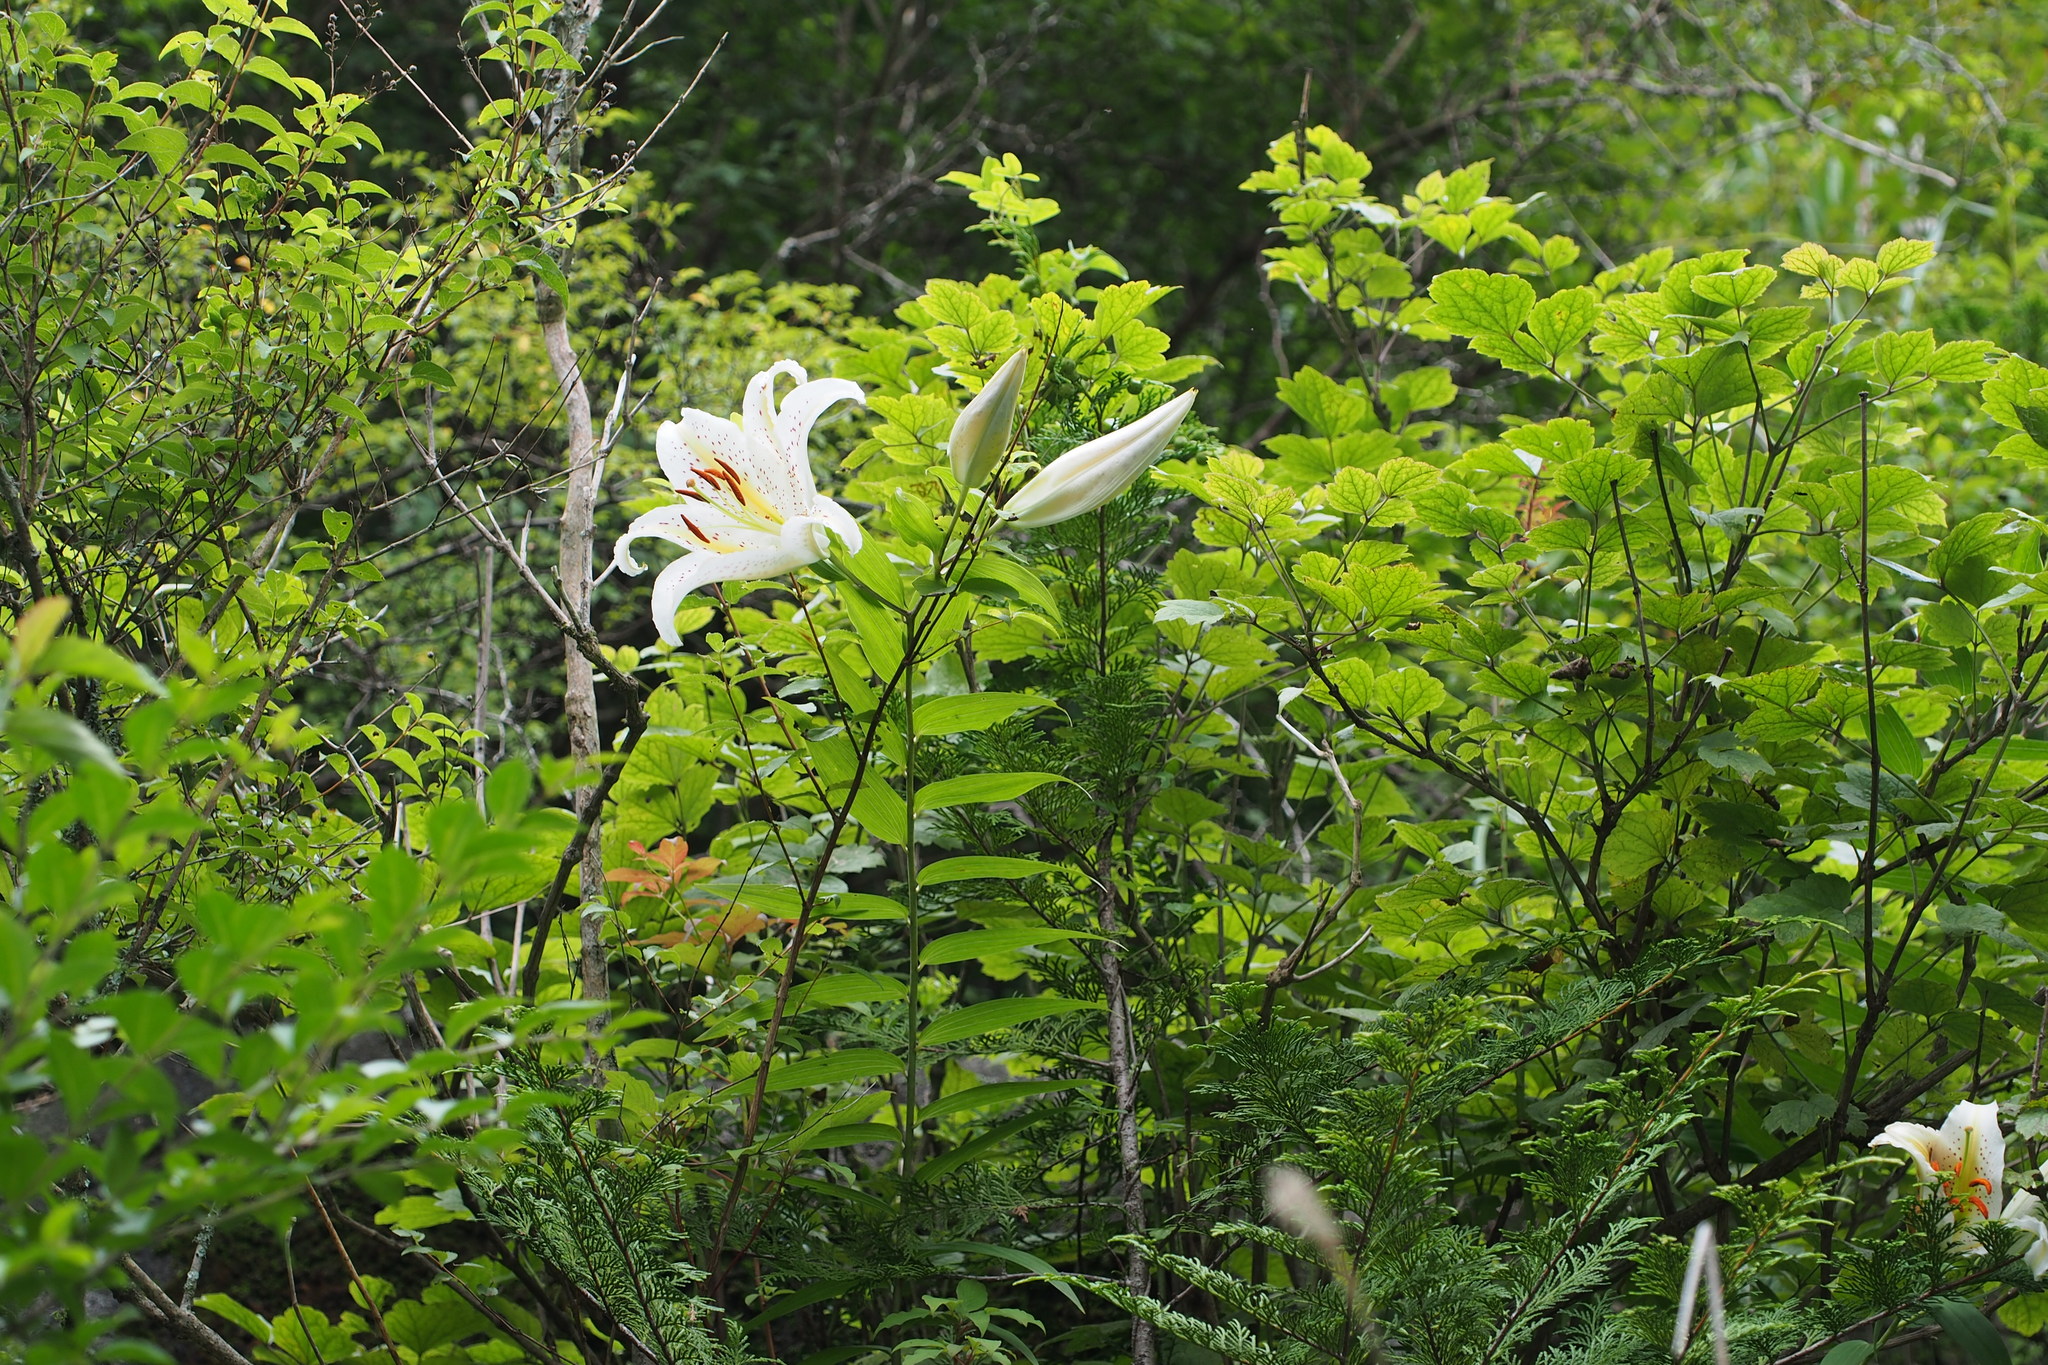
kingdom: Plantae
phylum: Tracheophyta
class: Liliopsida
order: Liliales
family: Liliaceae
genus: Lilium
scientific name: Lilium auratum
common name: Golden-ray lily
